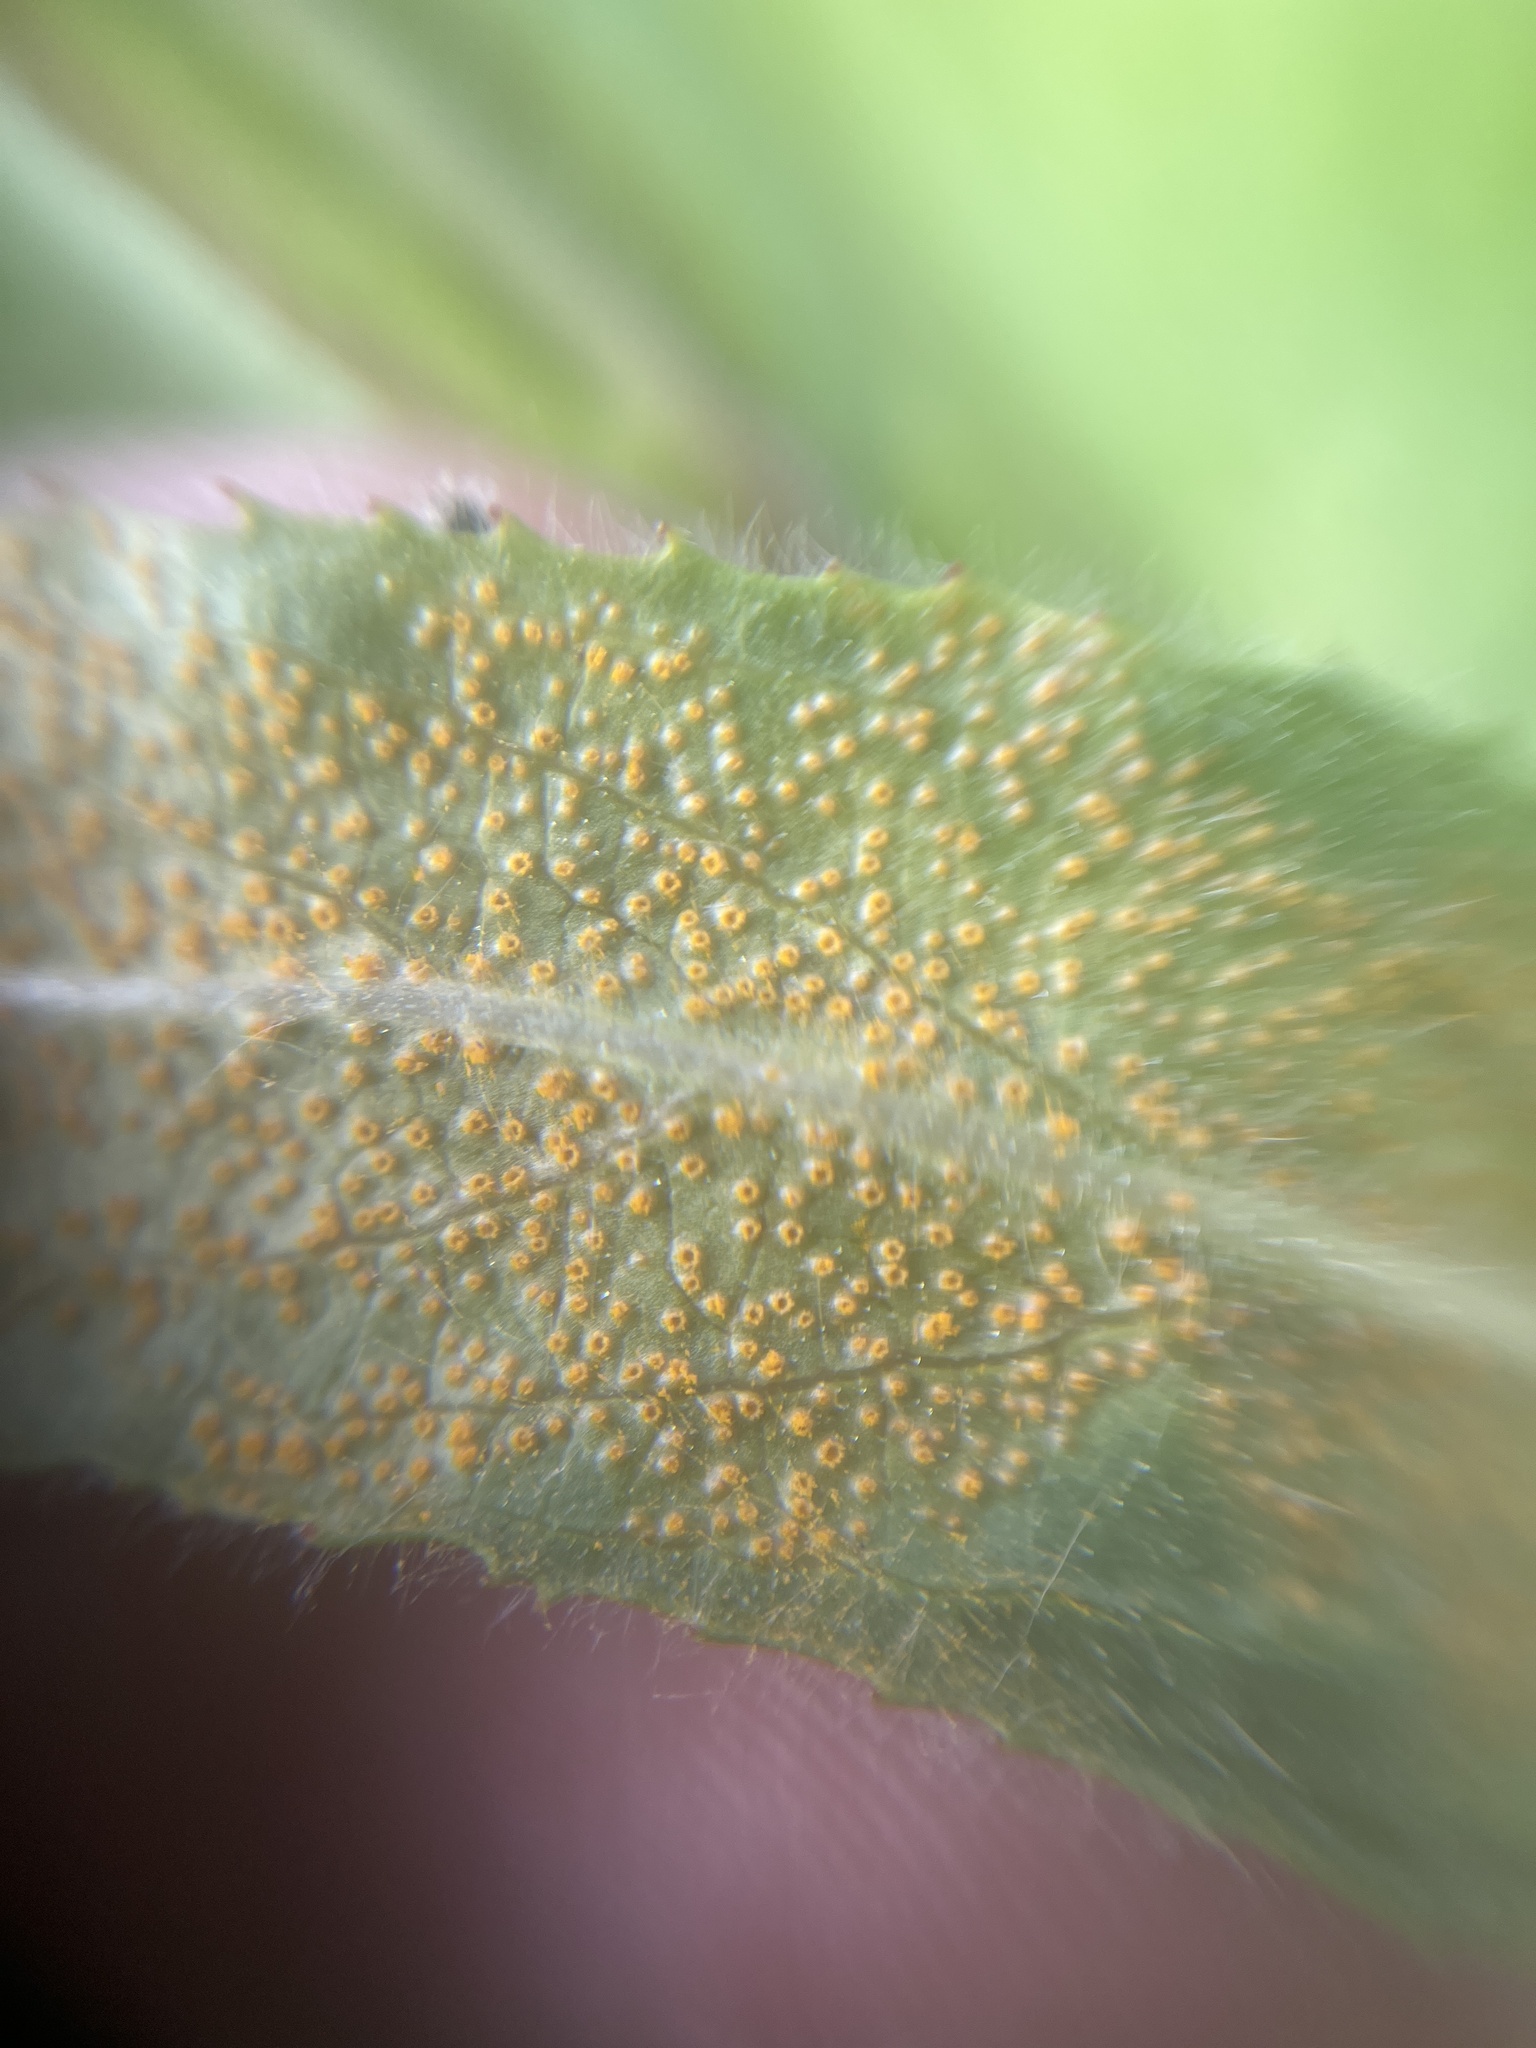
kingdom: Fungi
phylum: Basidiomycota
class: Pucciniomycetes
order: Pucciniales
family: Pucciniaceae
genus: Puccinia
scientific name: Puccinia pulverulenta
